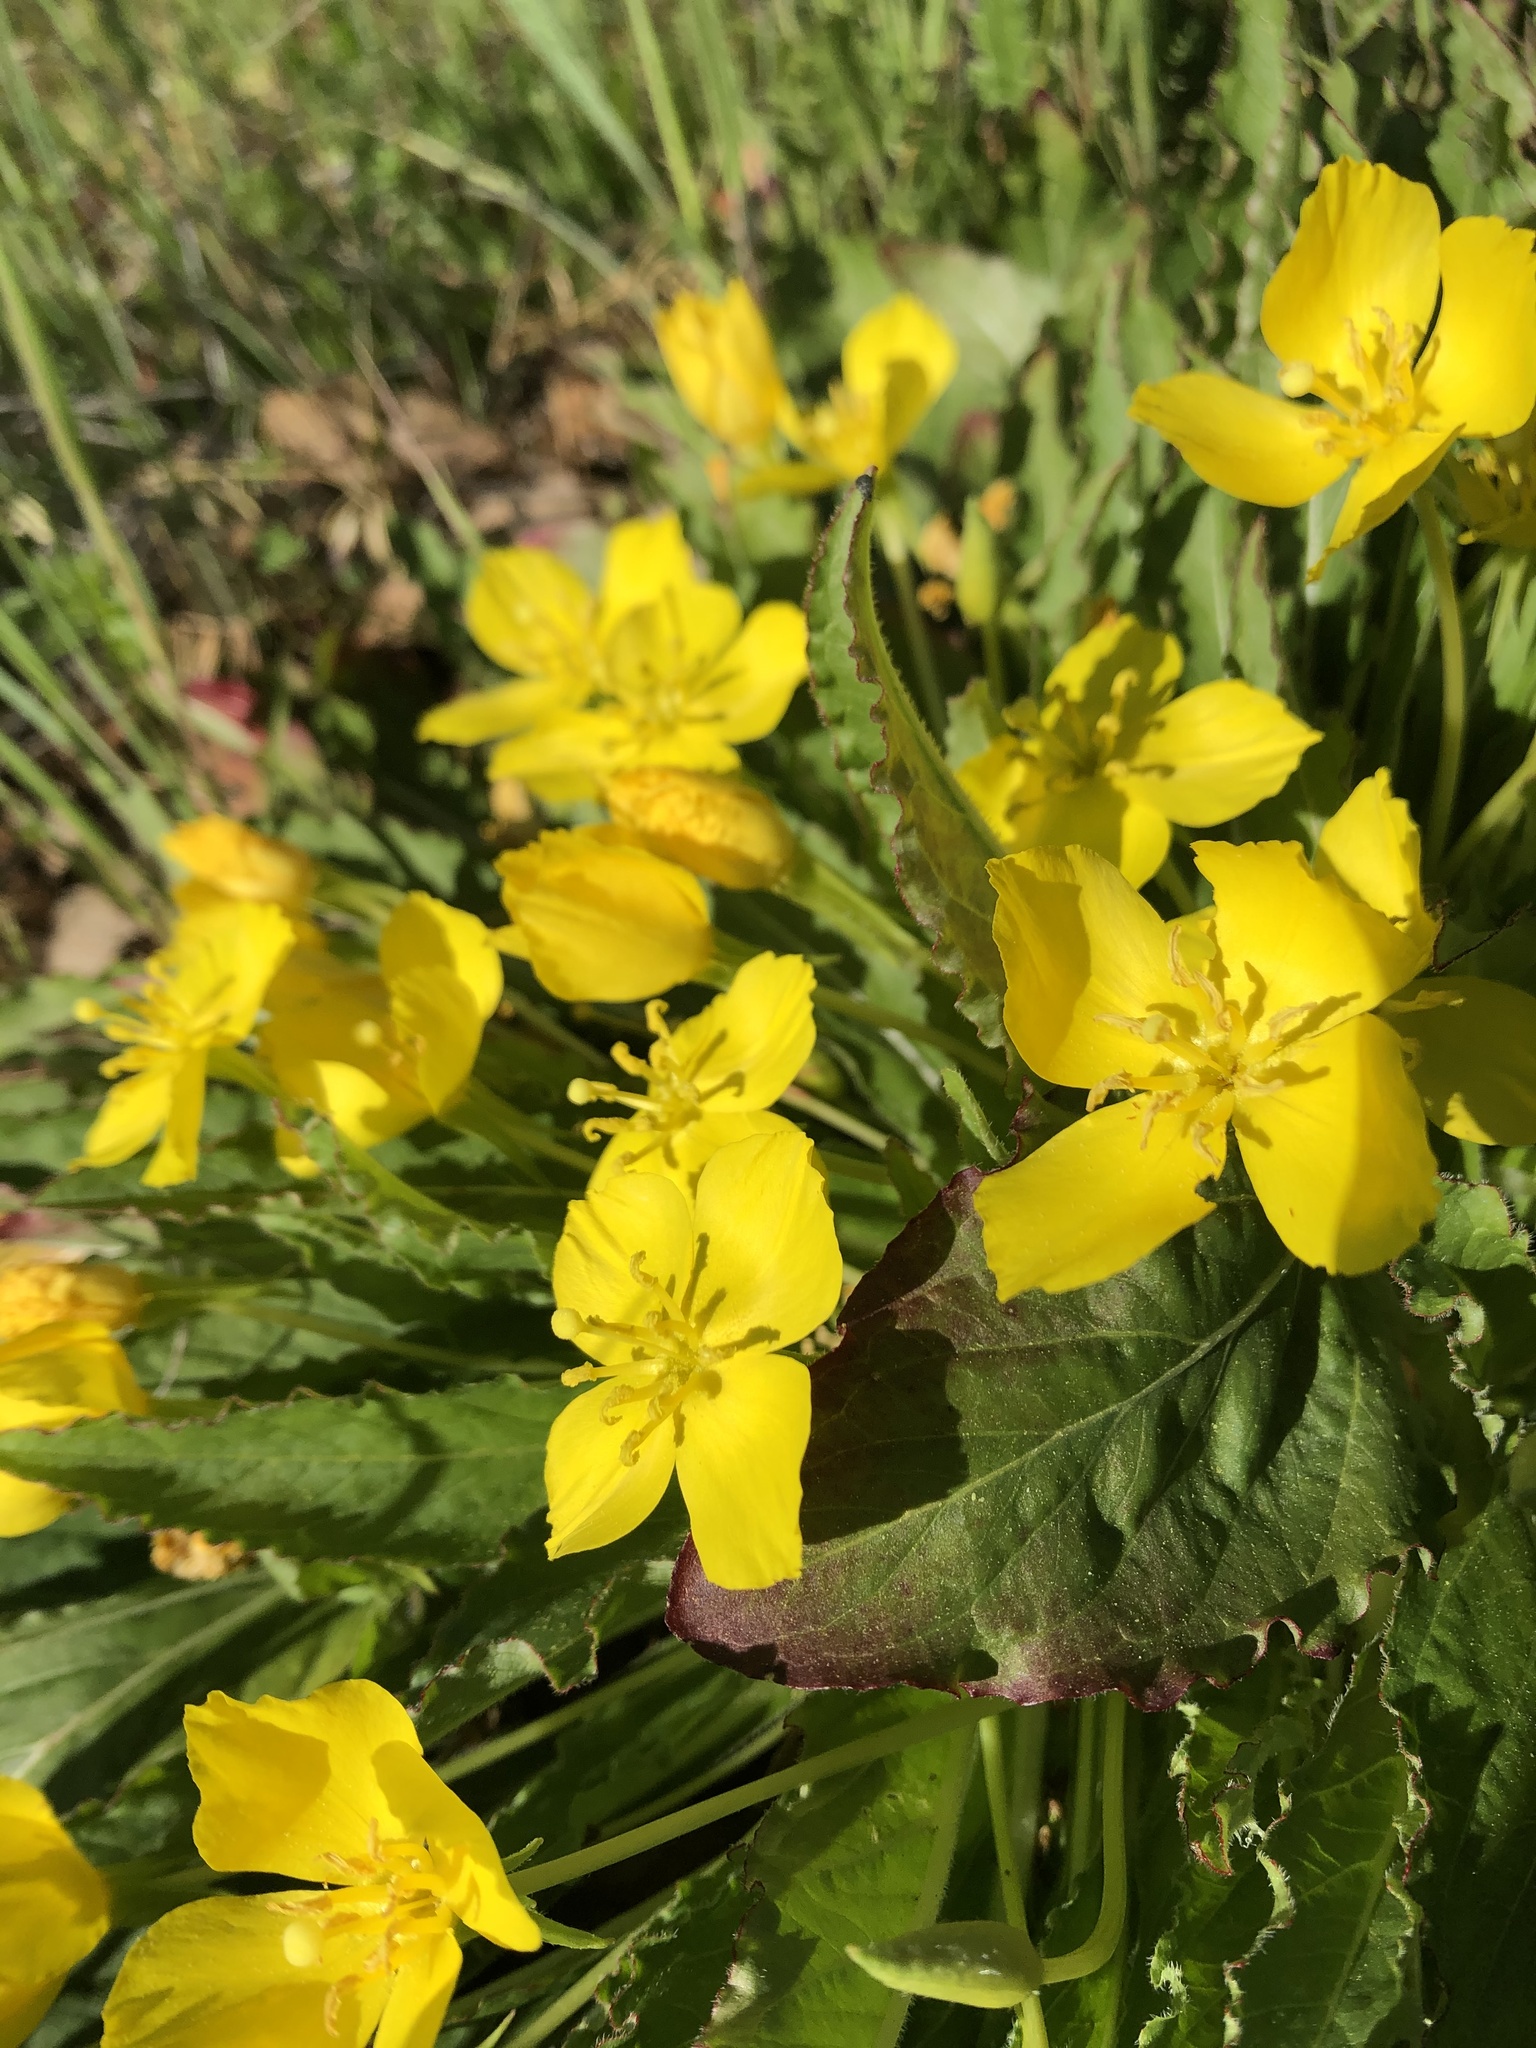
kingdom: Plantae
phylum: Tracheophyta
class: Magnoliopsida
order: Myrtales
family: Onagraceae
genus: Taraxia
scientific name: Taraxia ovata
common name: Goldeneggs
